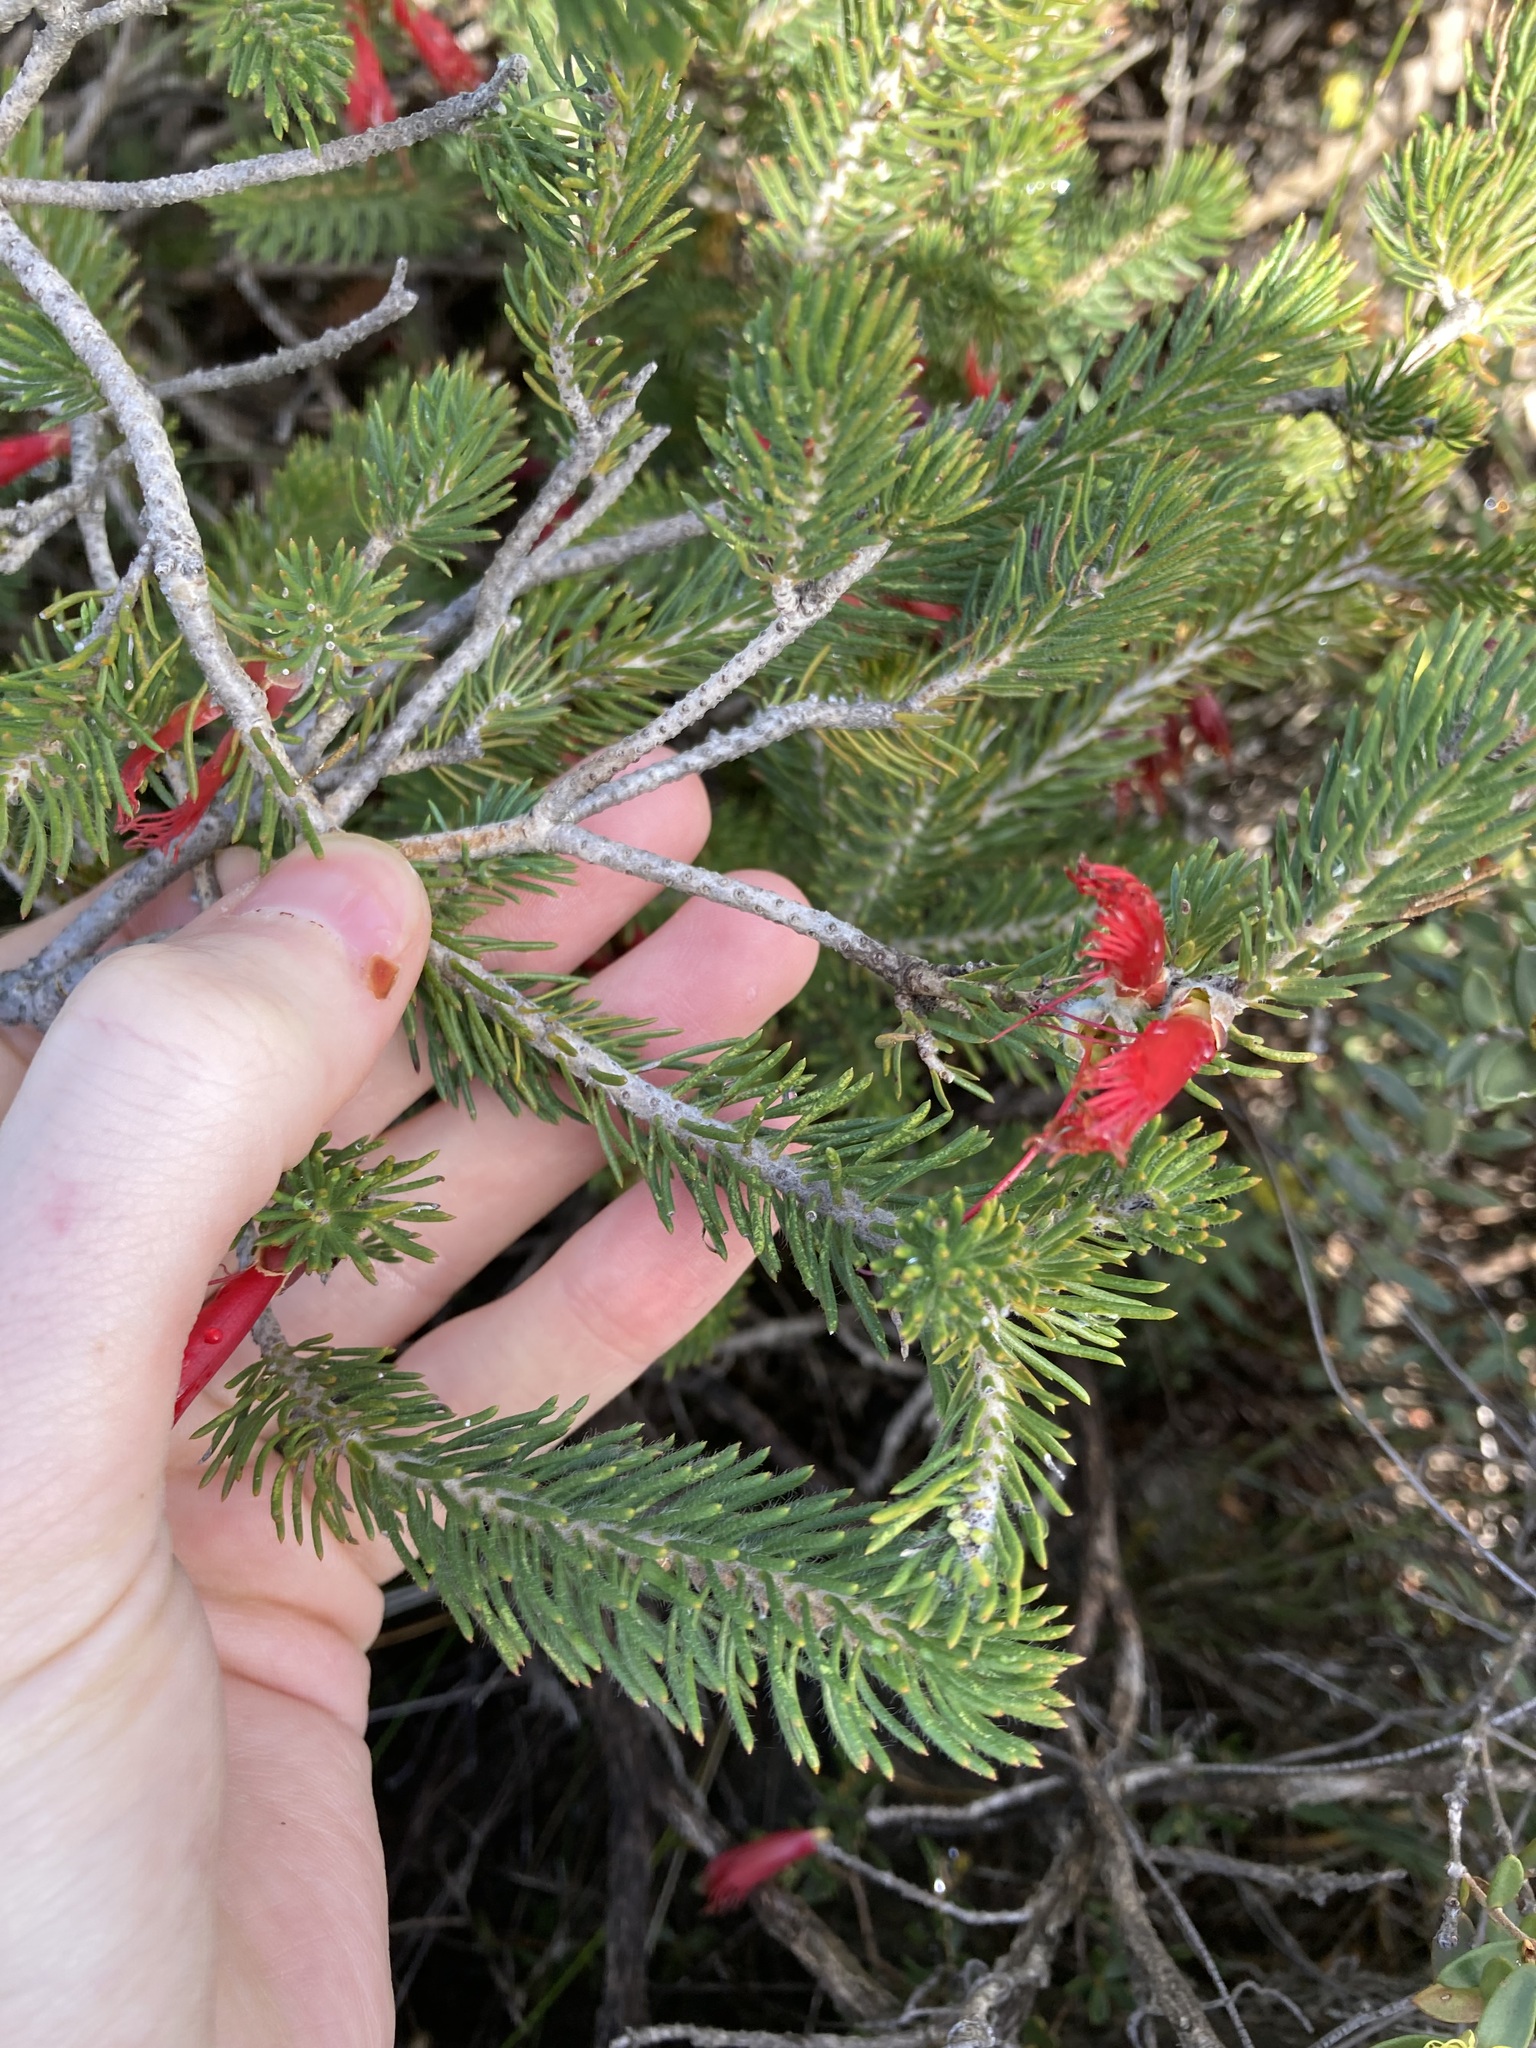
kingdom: Plantae
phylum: Tracheophyta
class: Magnoliopsida
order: Myrtales
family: Myrtaceae
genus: Melaleuca
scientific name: Melaleuca cruenta
